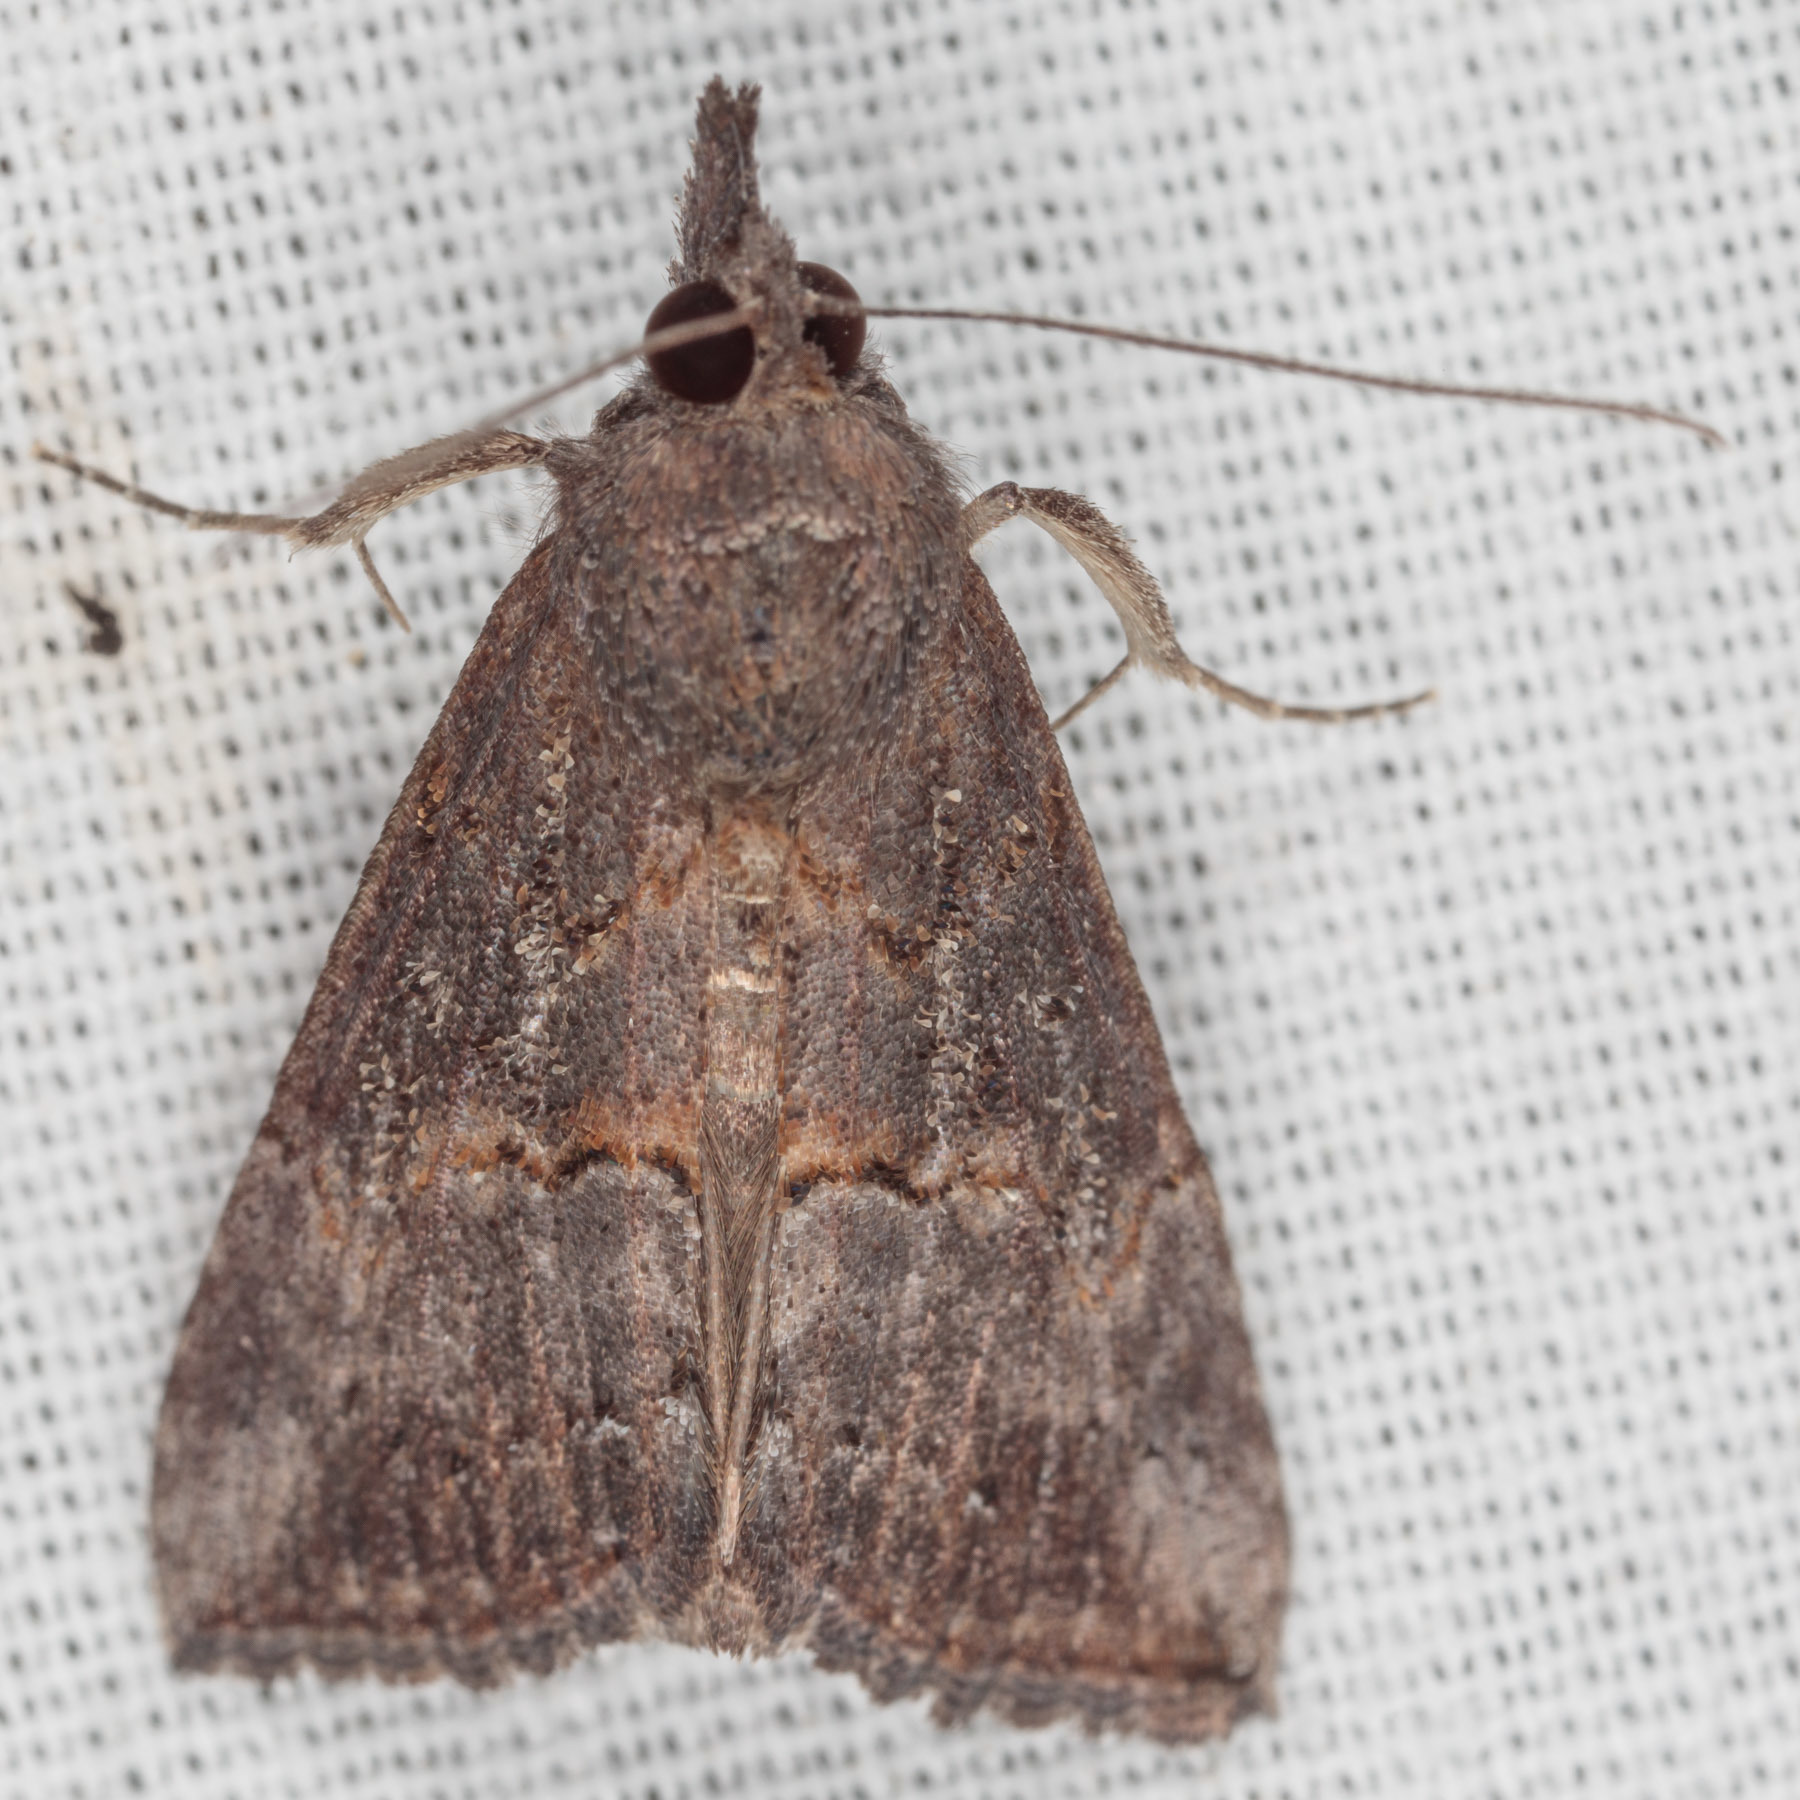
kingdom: Animalia
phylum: Arthropoda
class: Insecta
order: Lepidoptera
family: Erebidae
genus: Hypena
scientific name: Hypena scabra
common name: Green cloverworm
